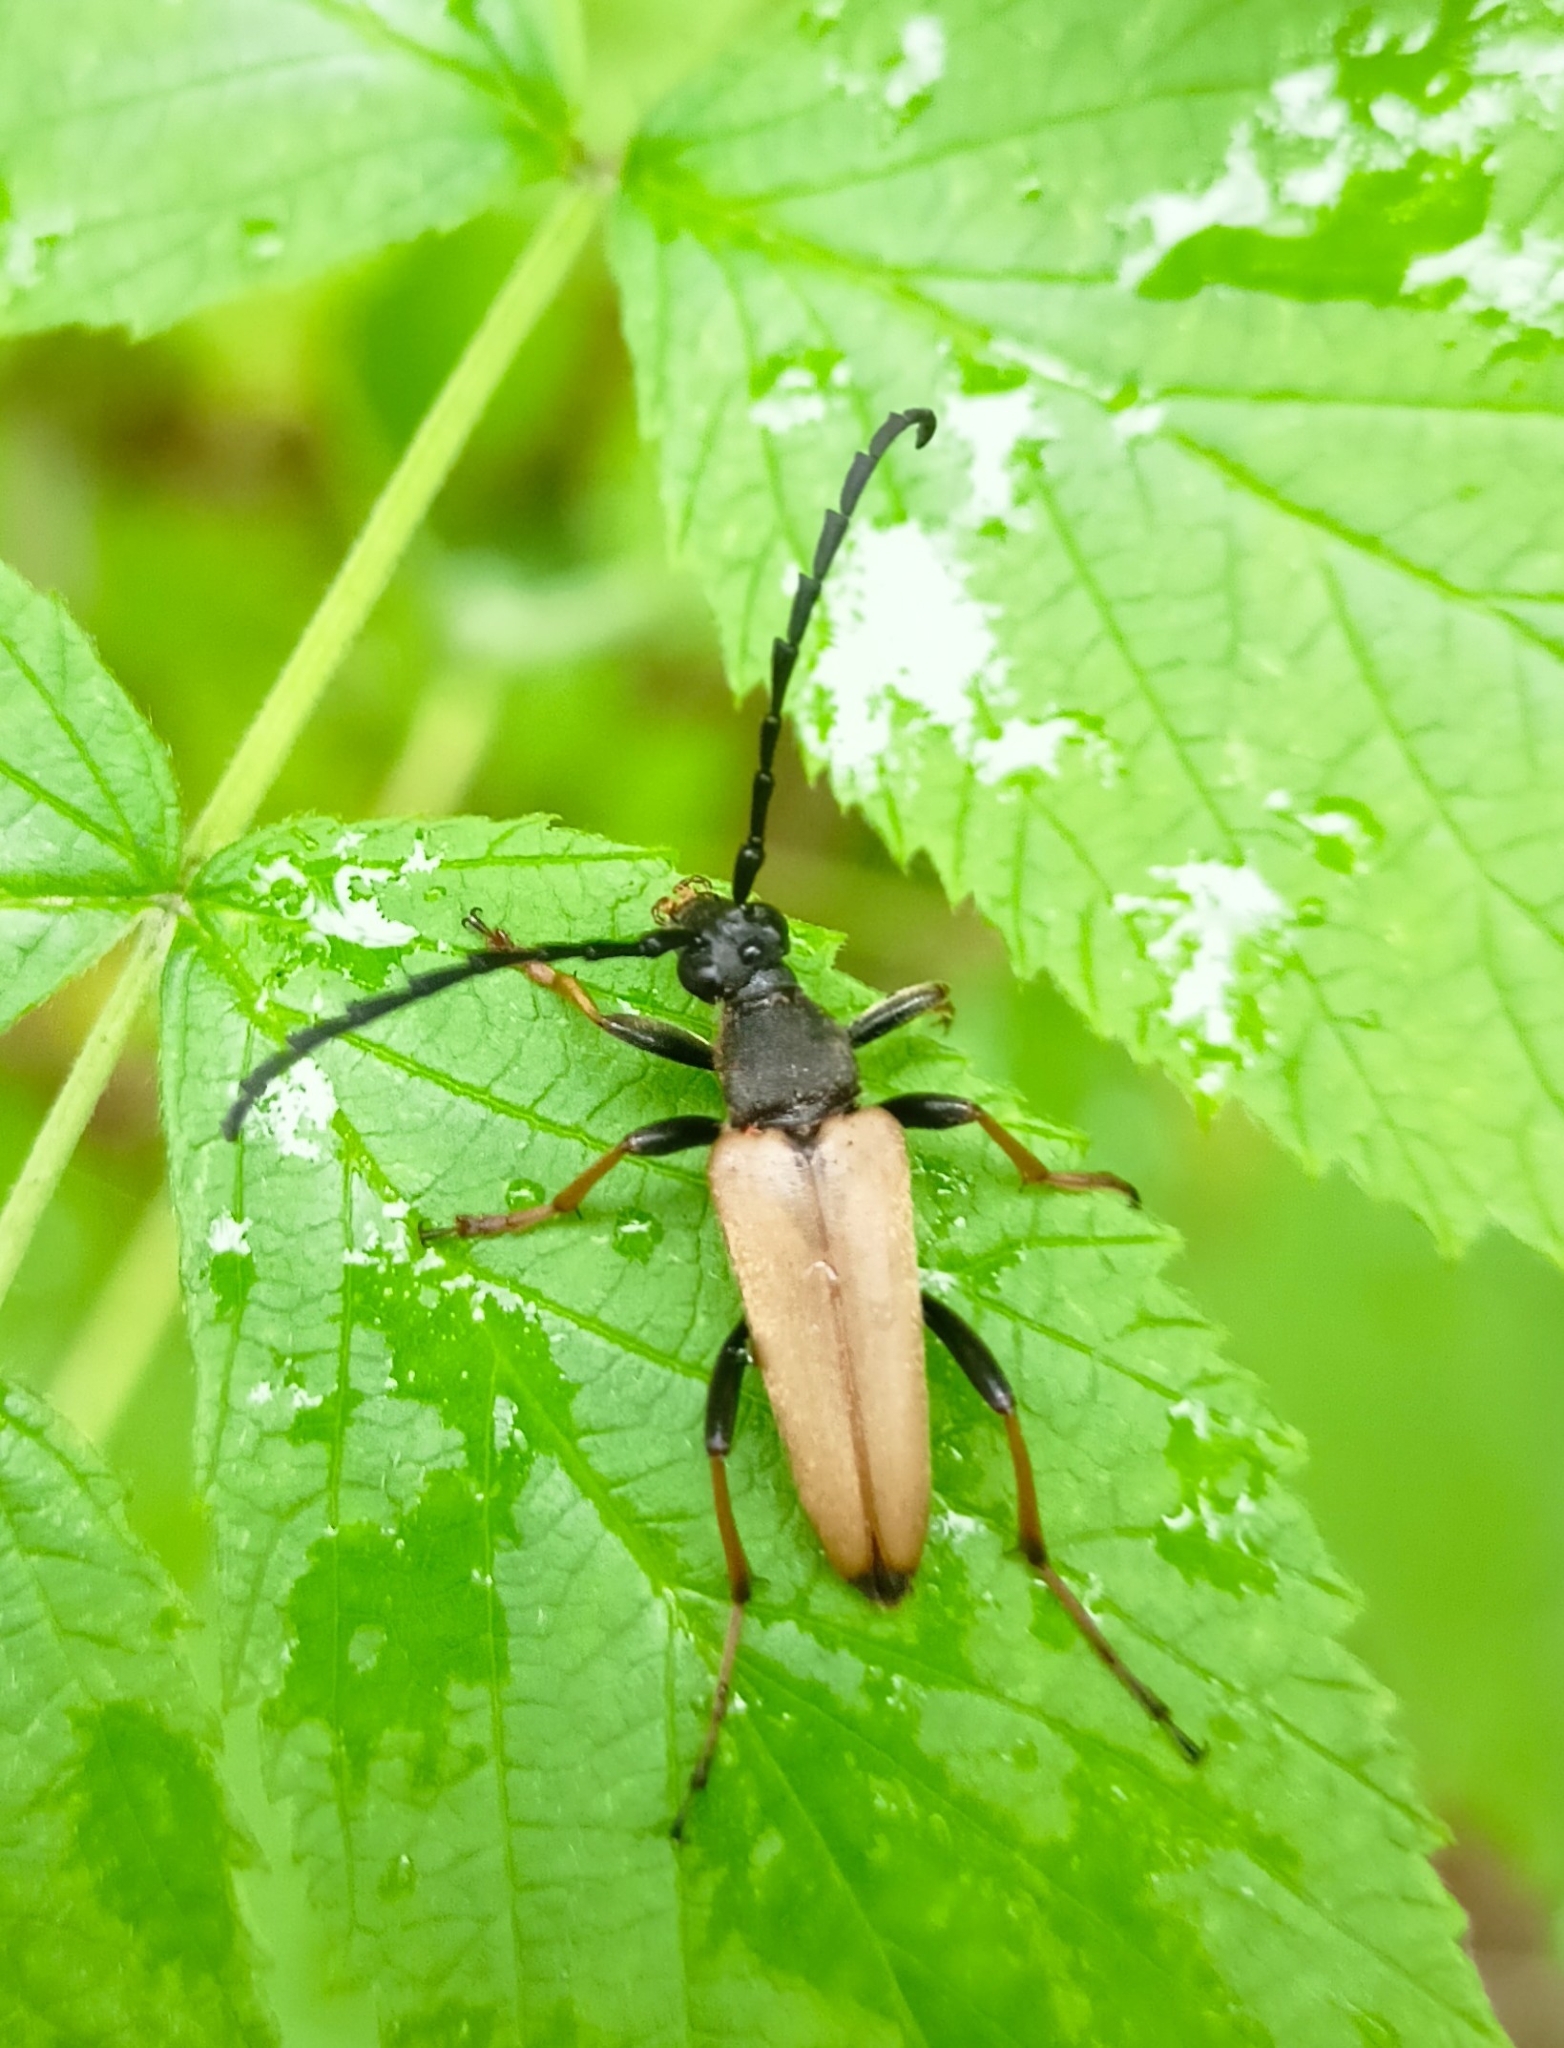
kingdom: Animalia
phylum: Arthropoda
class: Insecta
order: Coleoptera
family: Cerambycidae
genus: Stictoleptura
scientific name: Stictoleptura rubra
